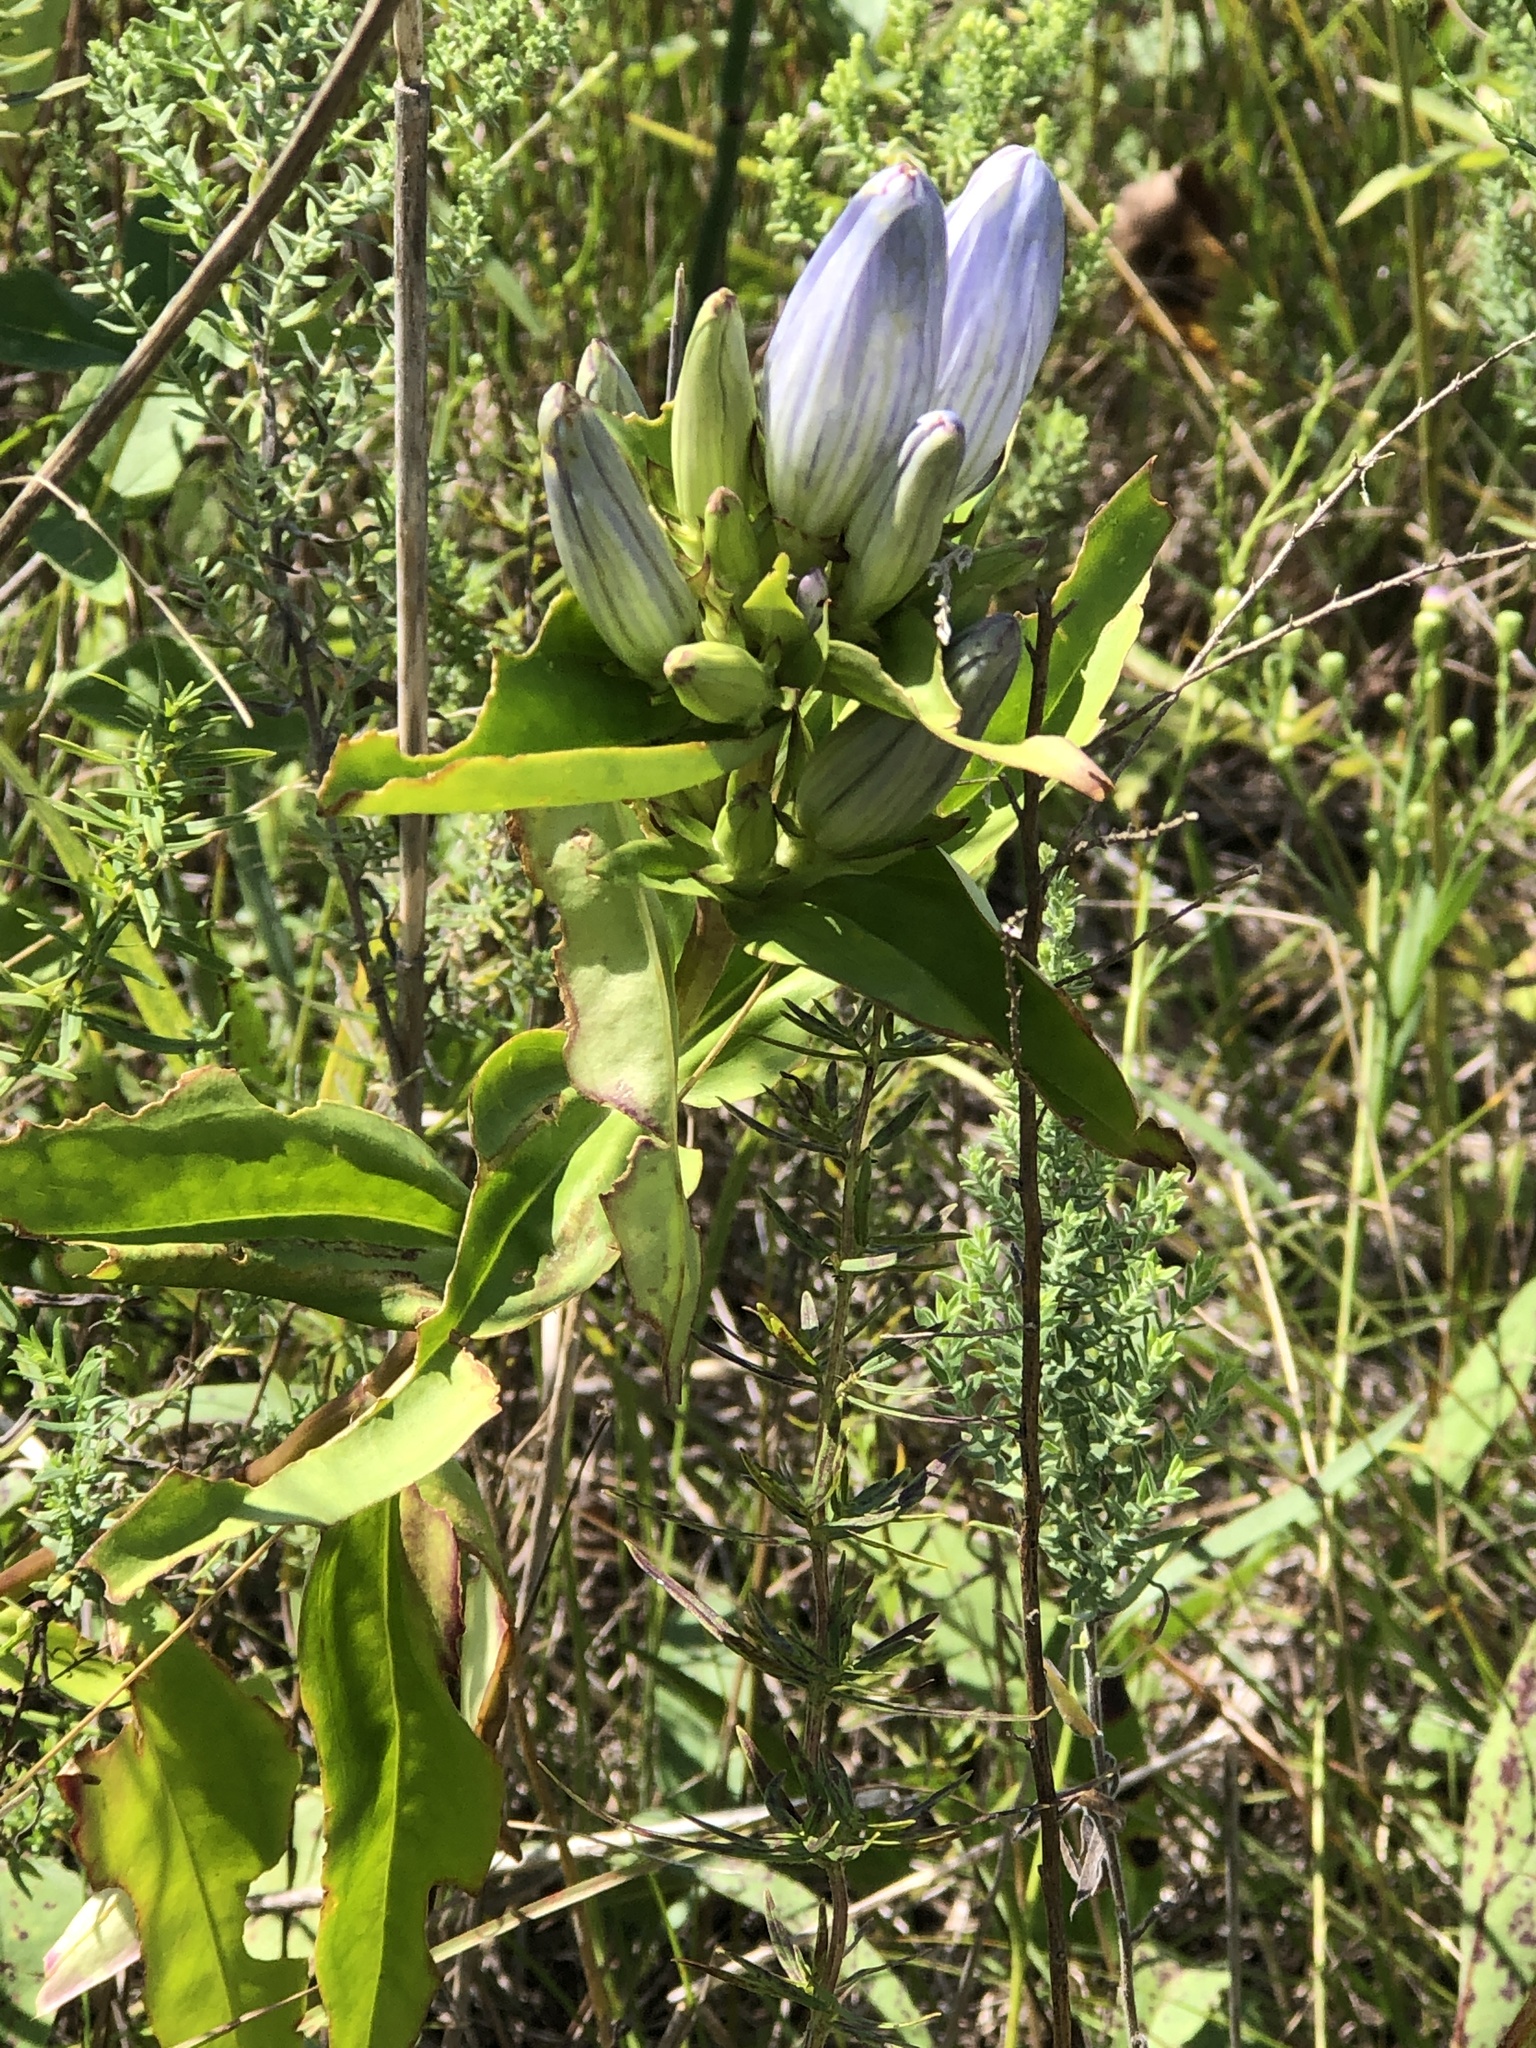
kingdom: Plantae
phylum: Tracheophyta
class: Magnoliopsida
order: Gentianales
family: Gentianaceae
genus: Gentiana
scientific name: Gentiana andrewsii
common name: Bottle gentian
